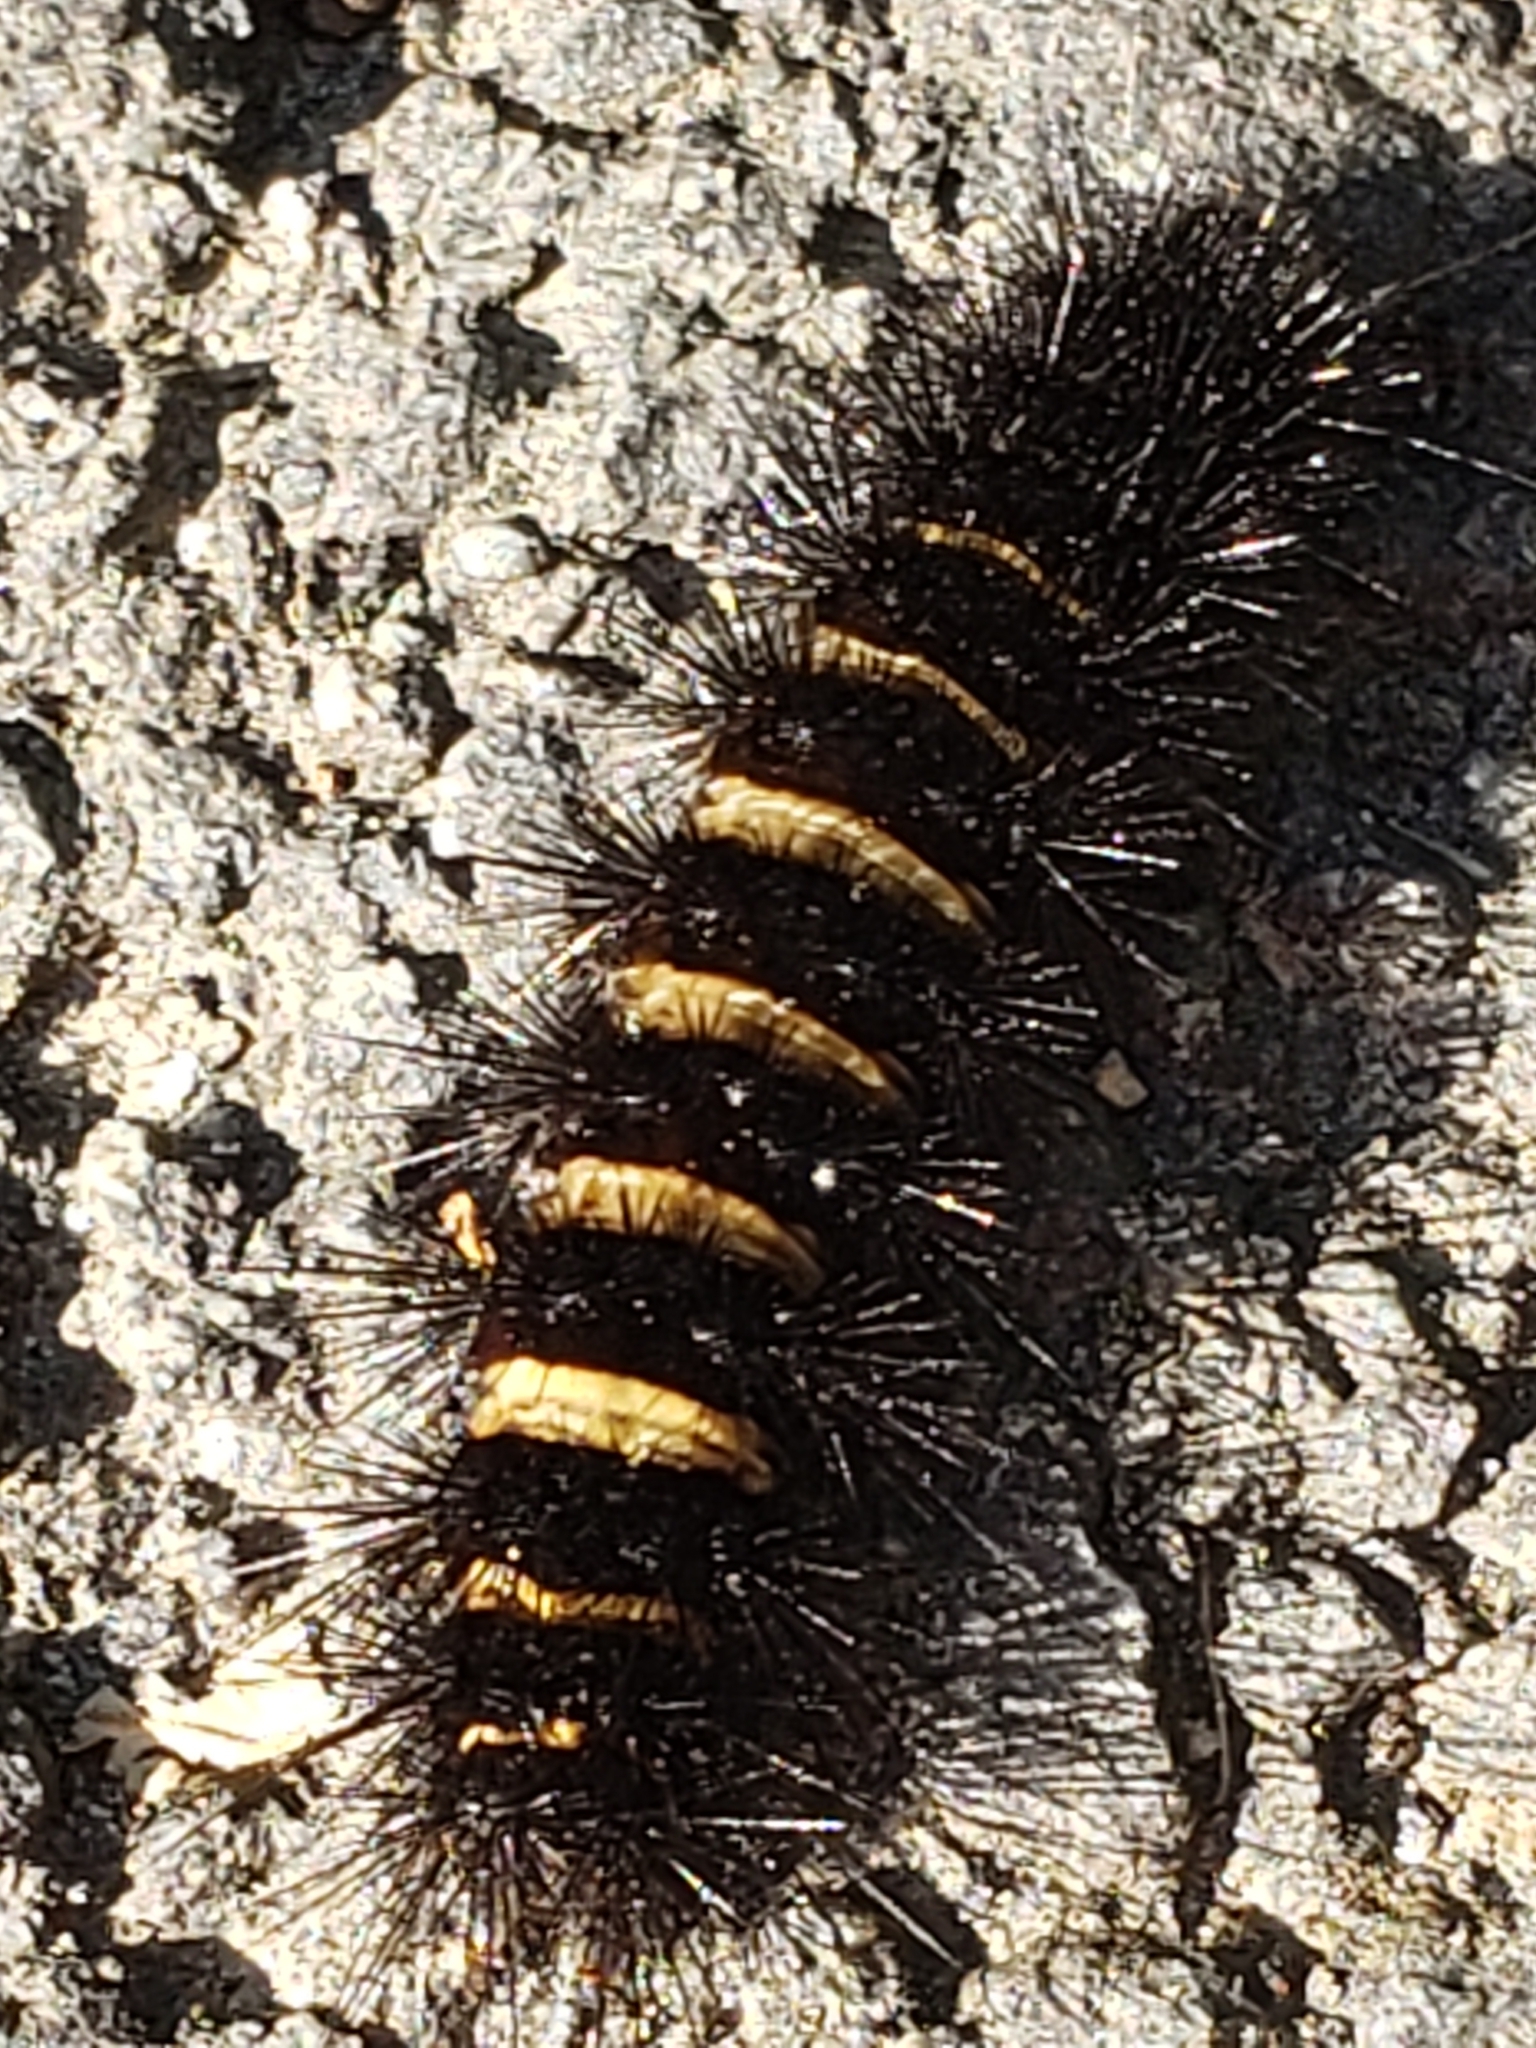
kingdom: Animalia
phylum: Arthropoda
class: Insecta
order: Lepidoptera
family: Erebidae
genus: Spilosoma
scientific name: Spilosoma congrua
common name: Agreeable tiger moth
